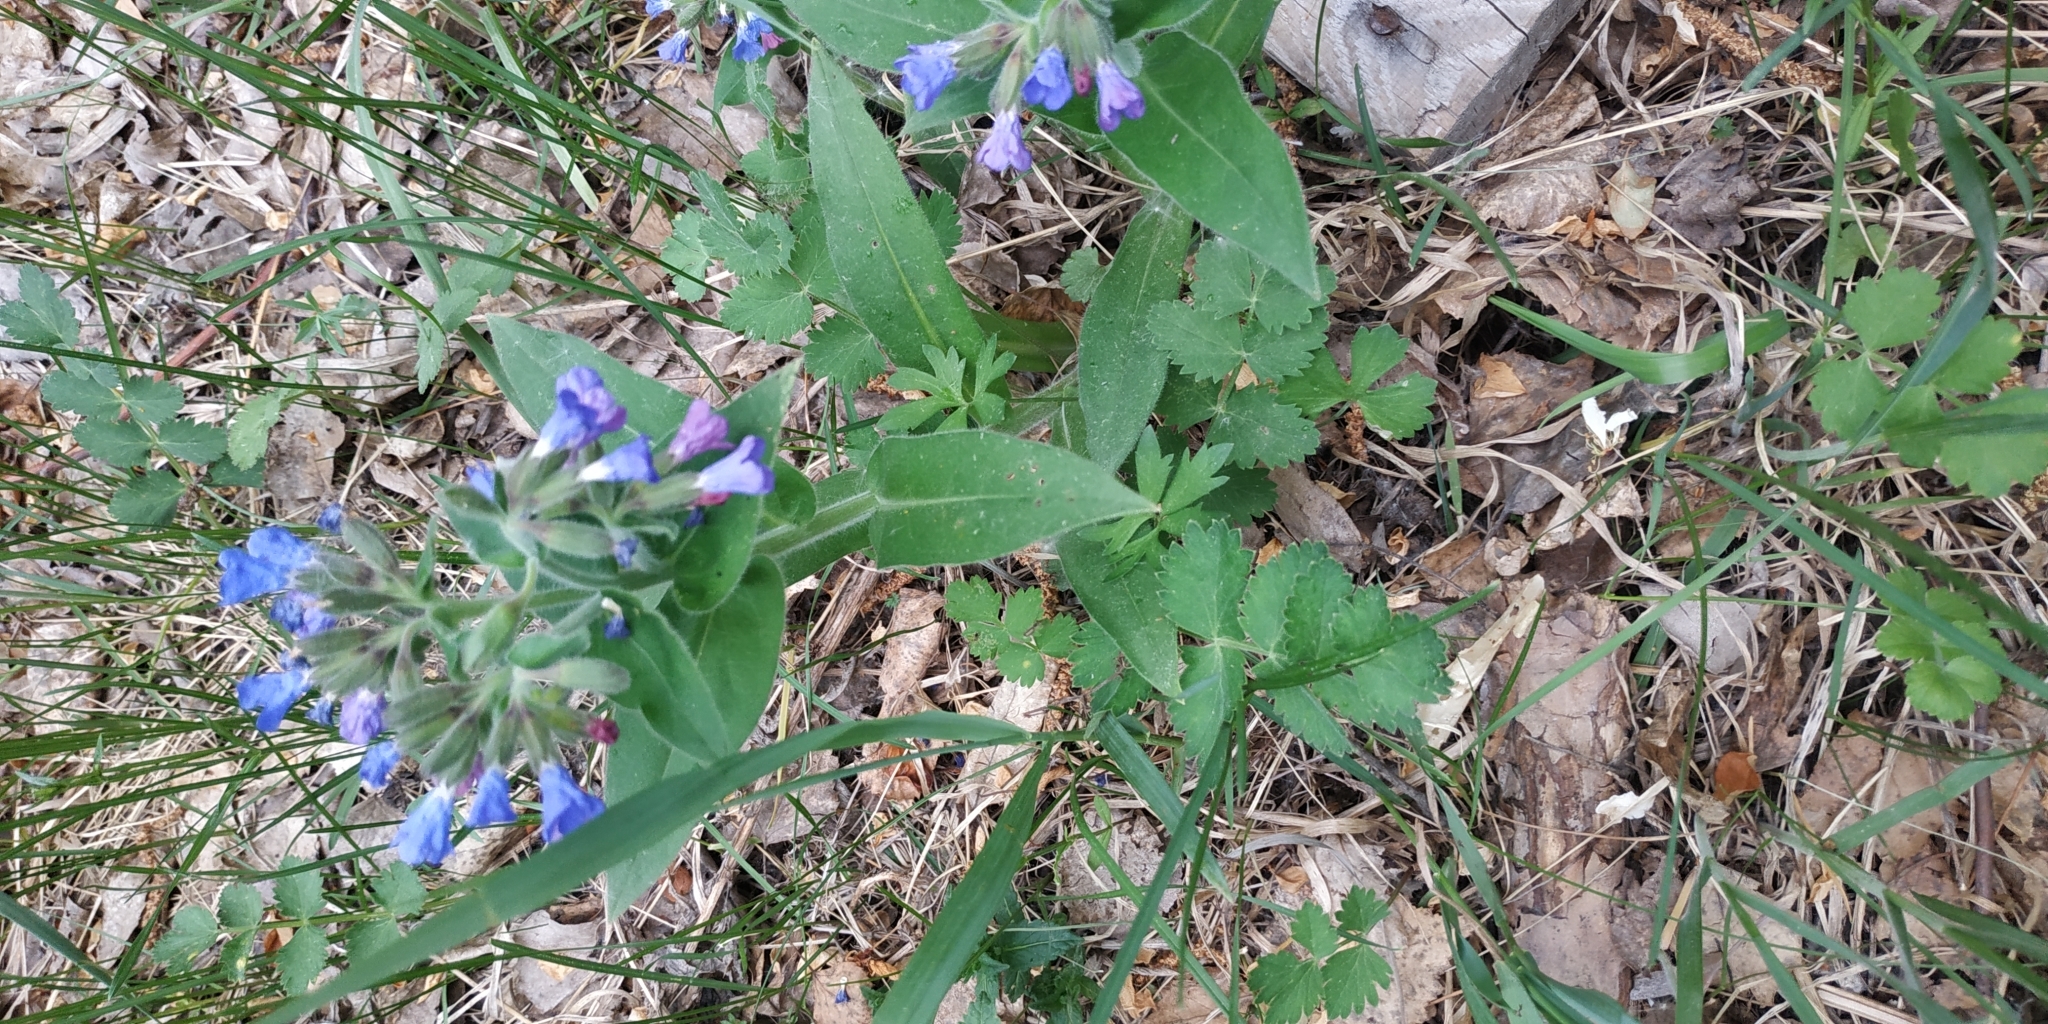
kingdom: Plantae
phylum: Tracheophyta
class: Magnoliopsida
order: Boraginales
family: Boraginaceae
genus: Pulmonaria
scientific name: Pulmonaria mollis
